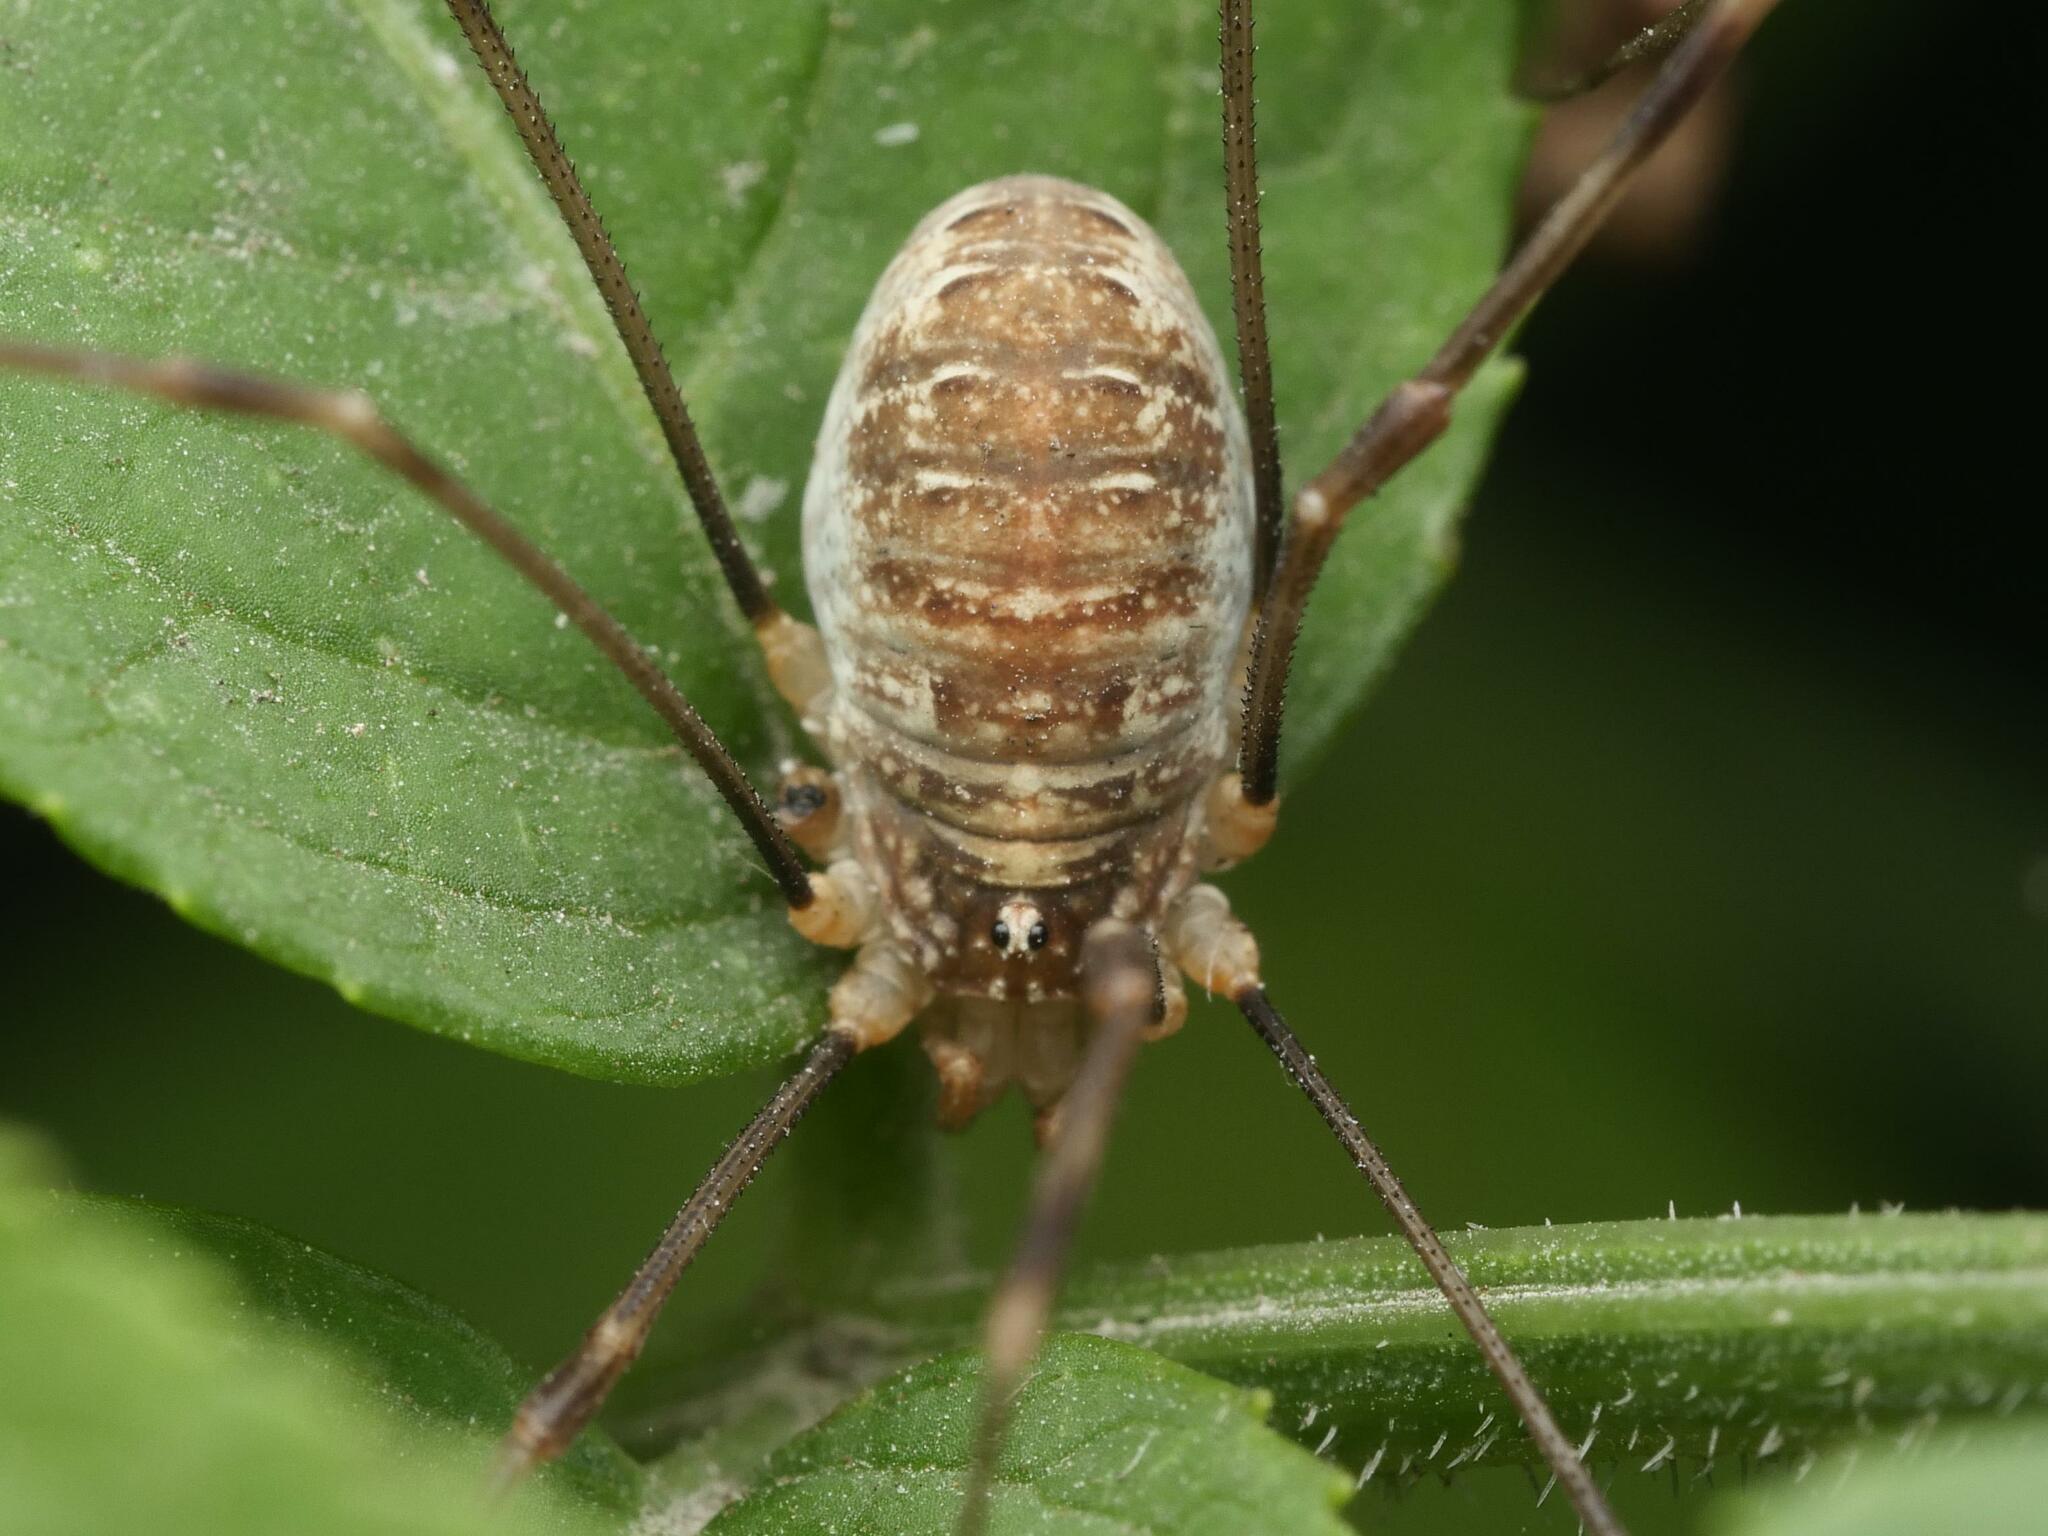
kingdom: Animalia
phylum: Arthropoda
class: Arachnida
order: Opiliones
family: Phalangiidae
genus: Opilio
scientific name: Opilio canestrinii
